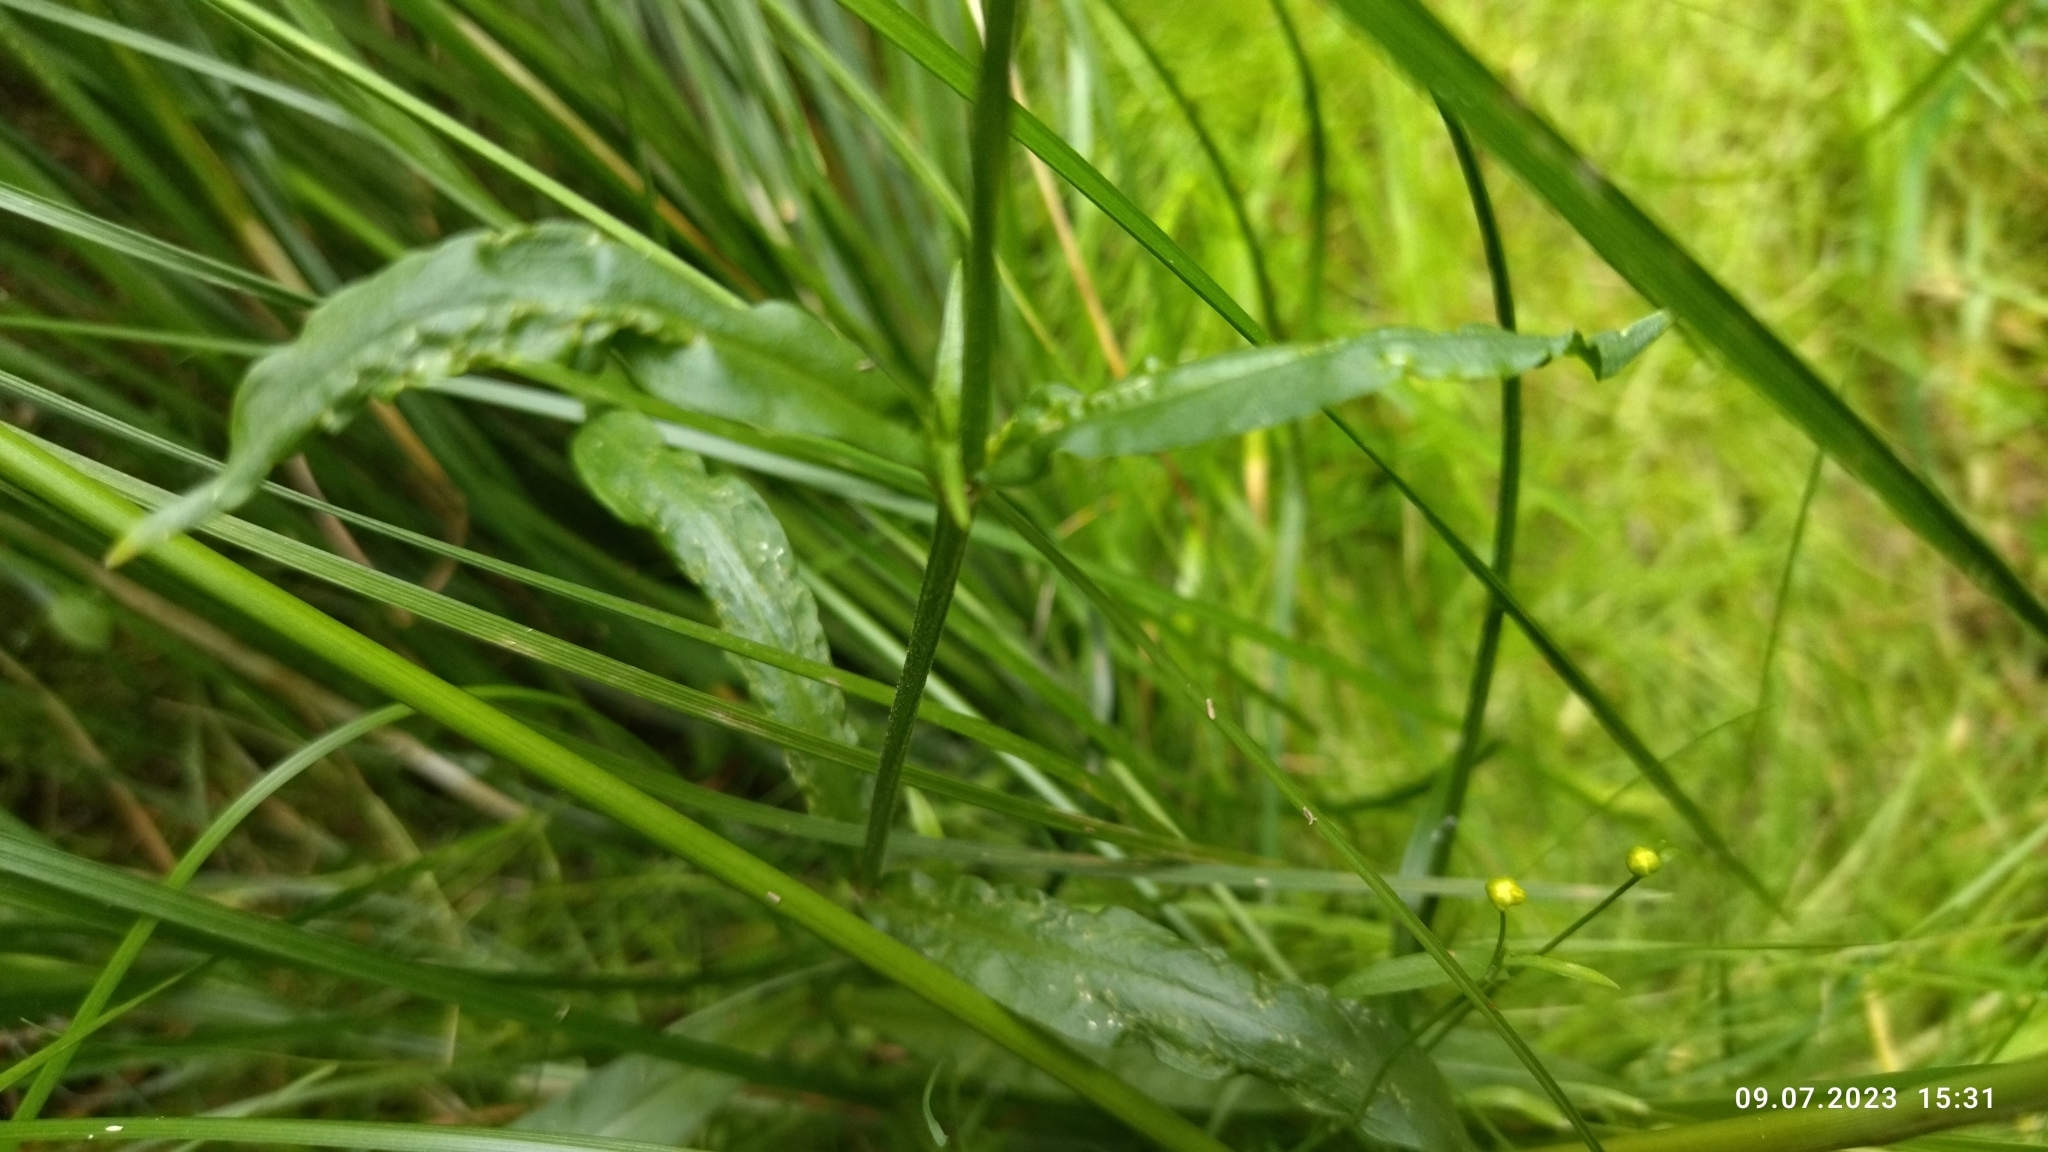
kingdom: Plantae
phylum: Tracheophyta
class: Magnoliopsida
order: Caryophyllales
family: Caryophyllaceae
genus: Silene
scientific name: Silene flos-cuculi
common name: Ragged-robin
